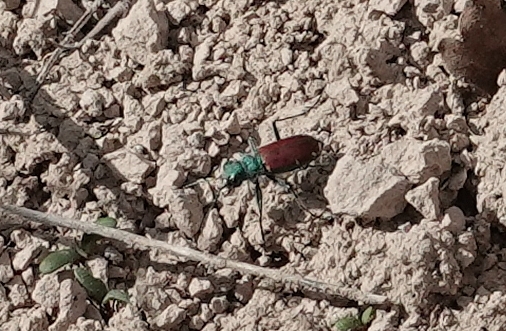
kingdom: Animalia
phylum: Arthropoda
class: Insecta
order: Coleoptera
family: Carabidae
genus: Cicindela
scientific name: Cicindela splendida
